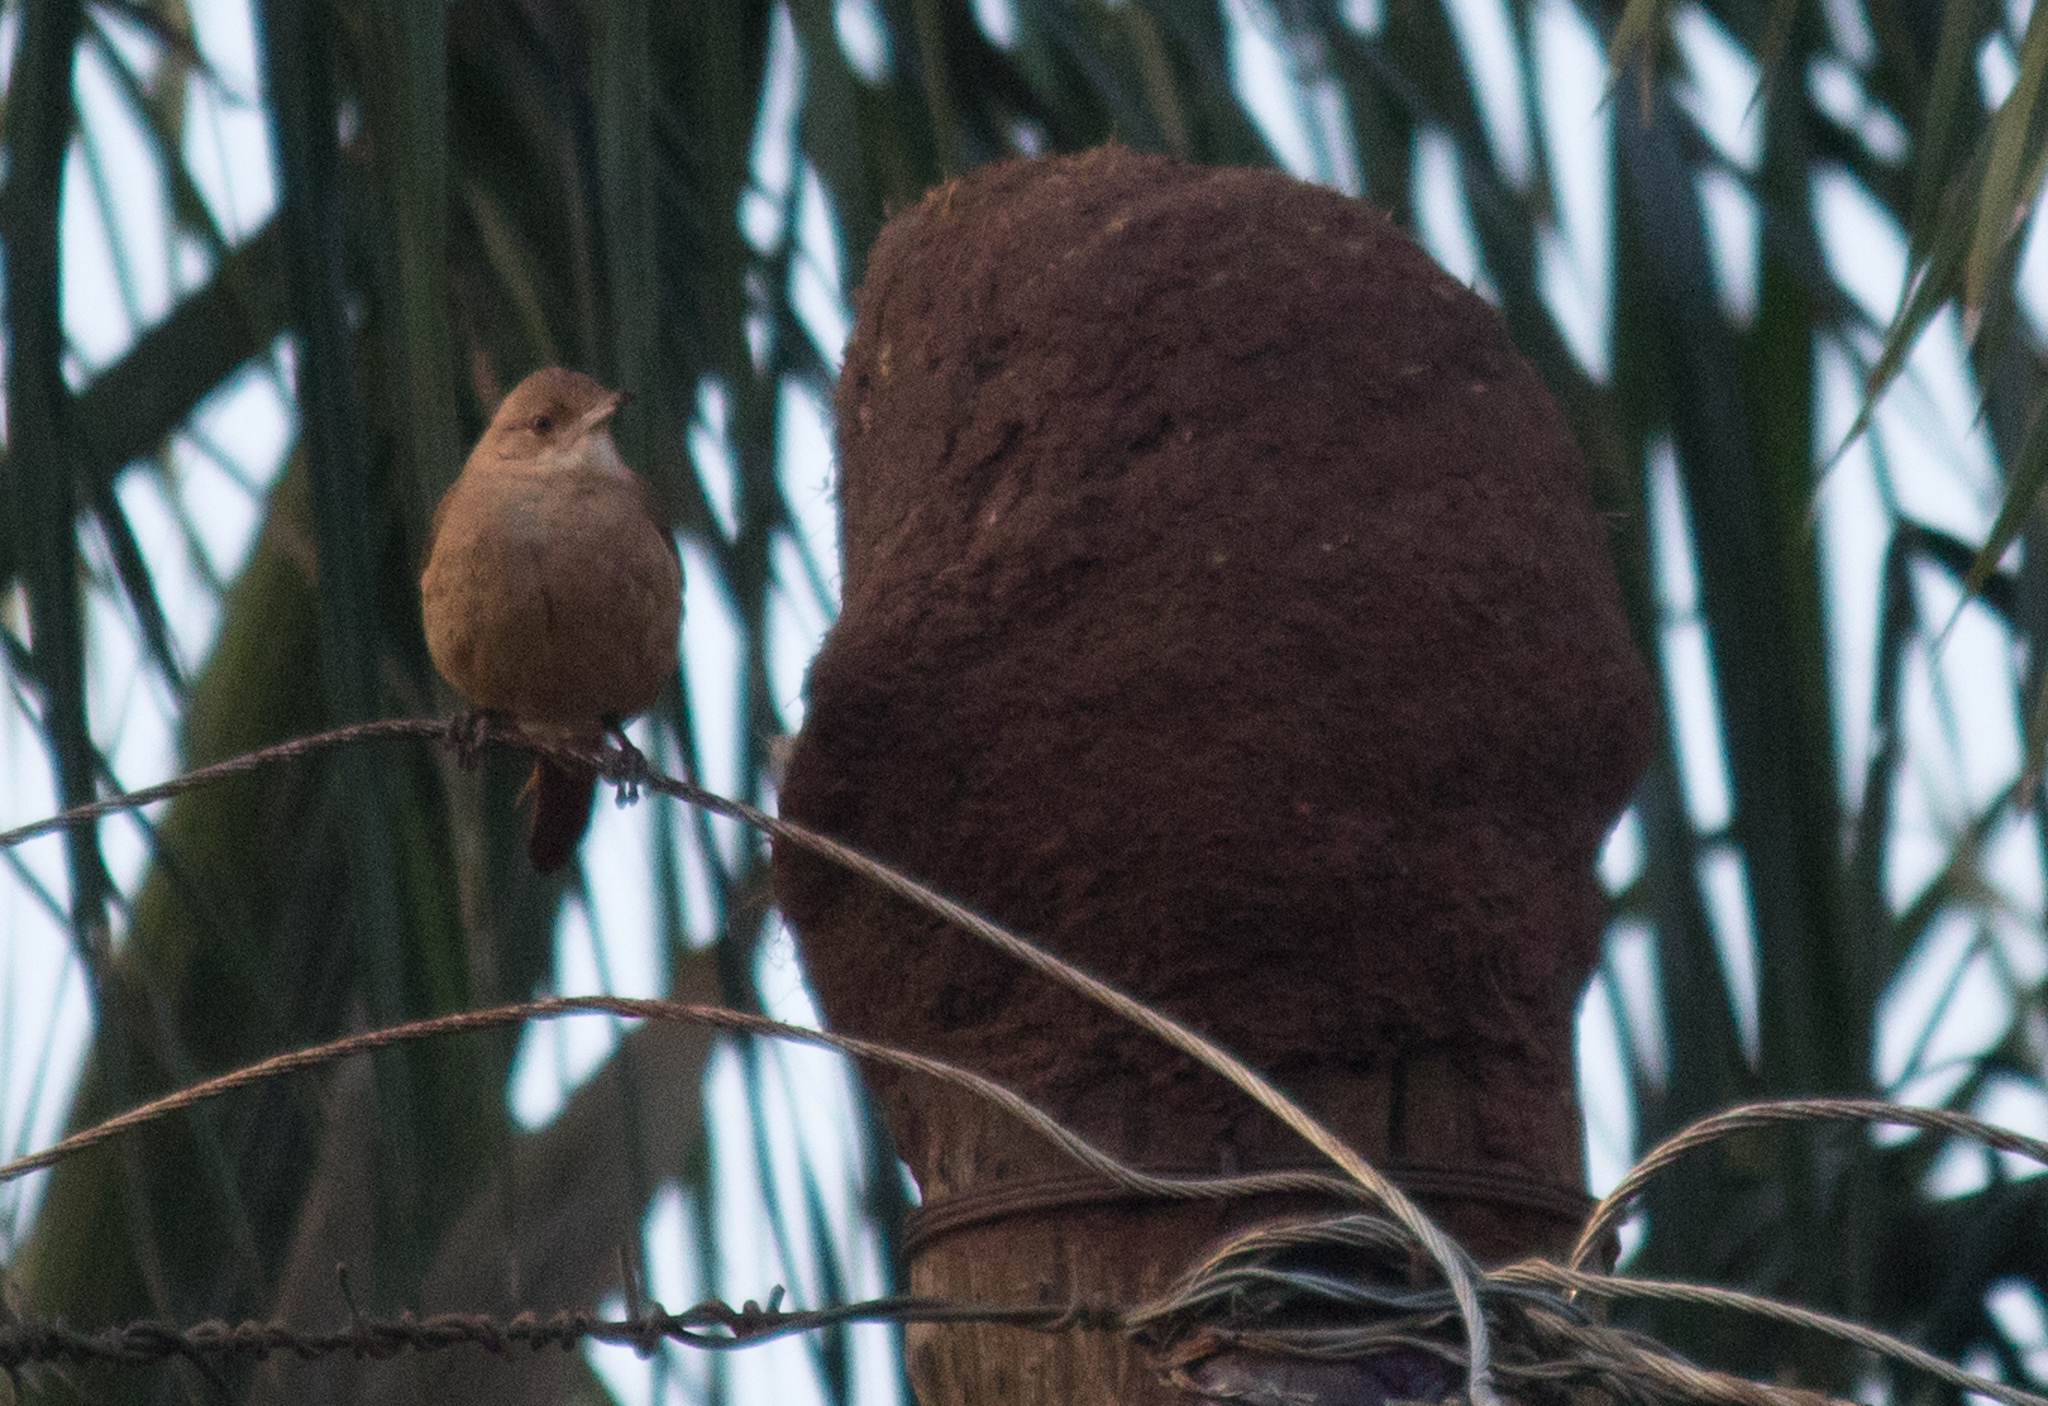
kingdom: Animalia
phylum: Chordata
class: Aves
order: Passeriformes
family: Furnariidae
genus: Furnarius
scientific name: Furnarius rufus
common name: Rufous hornero
